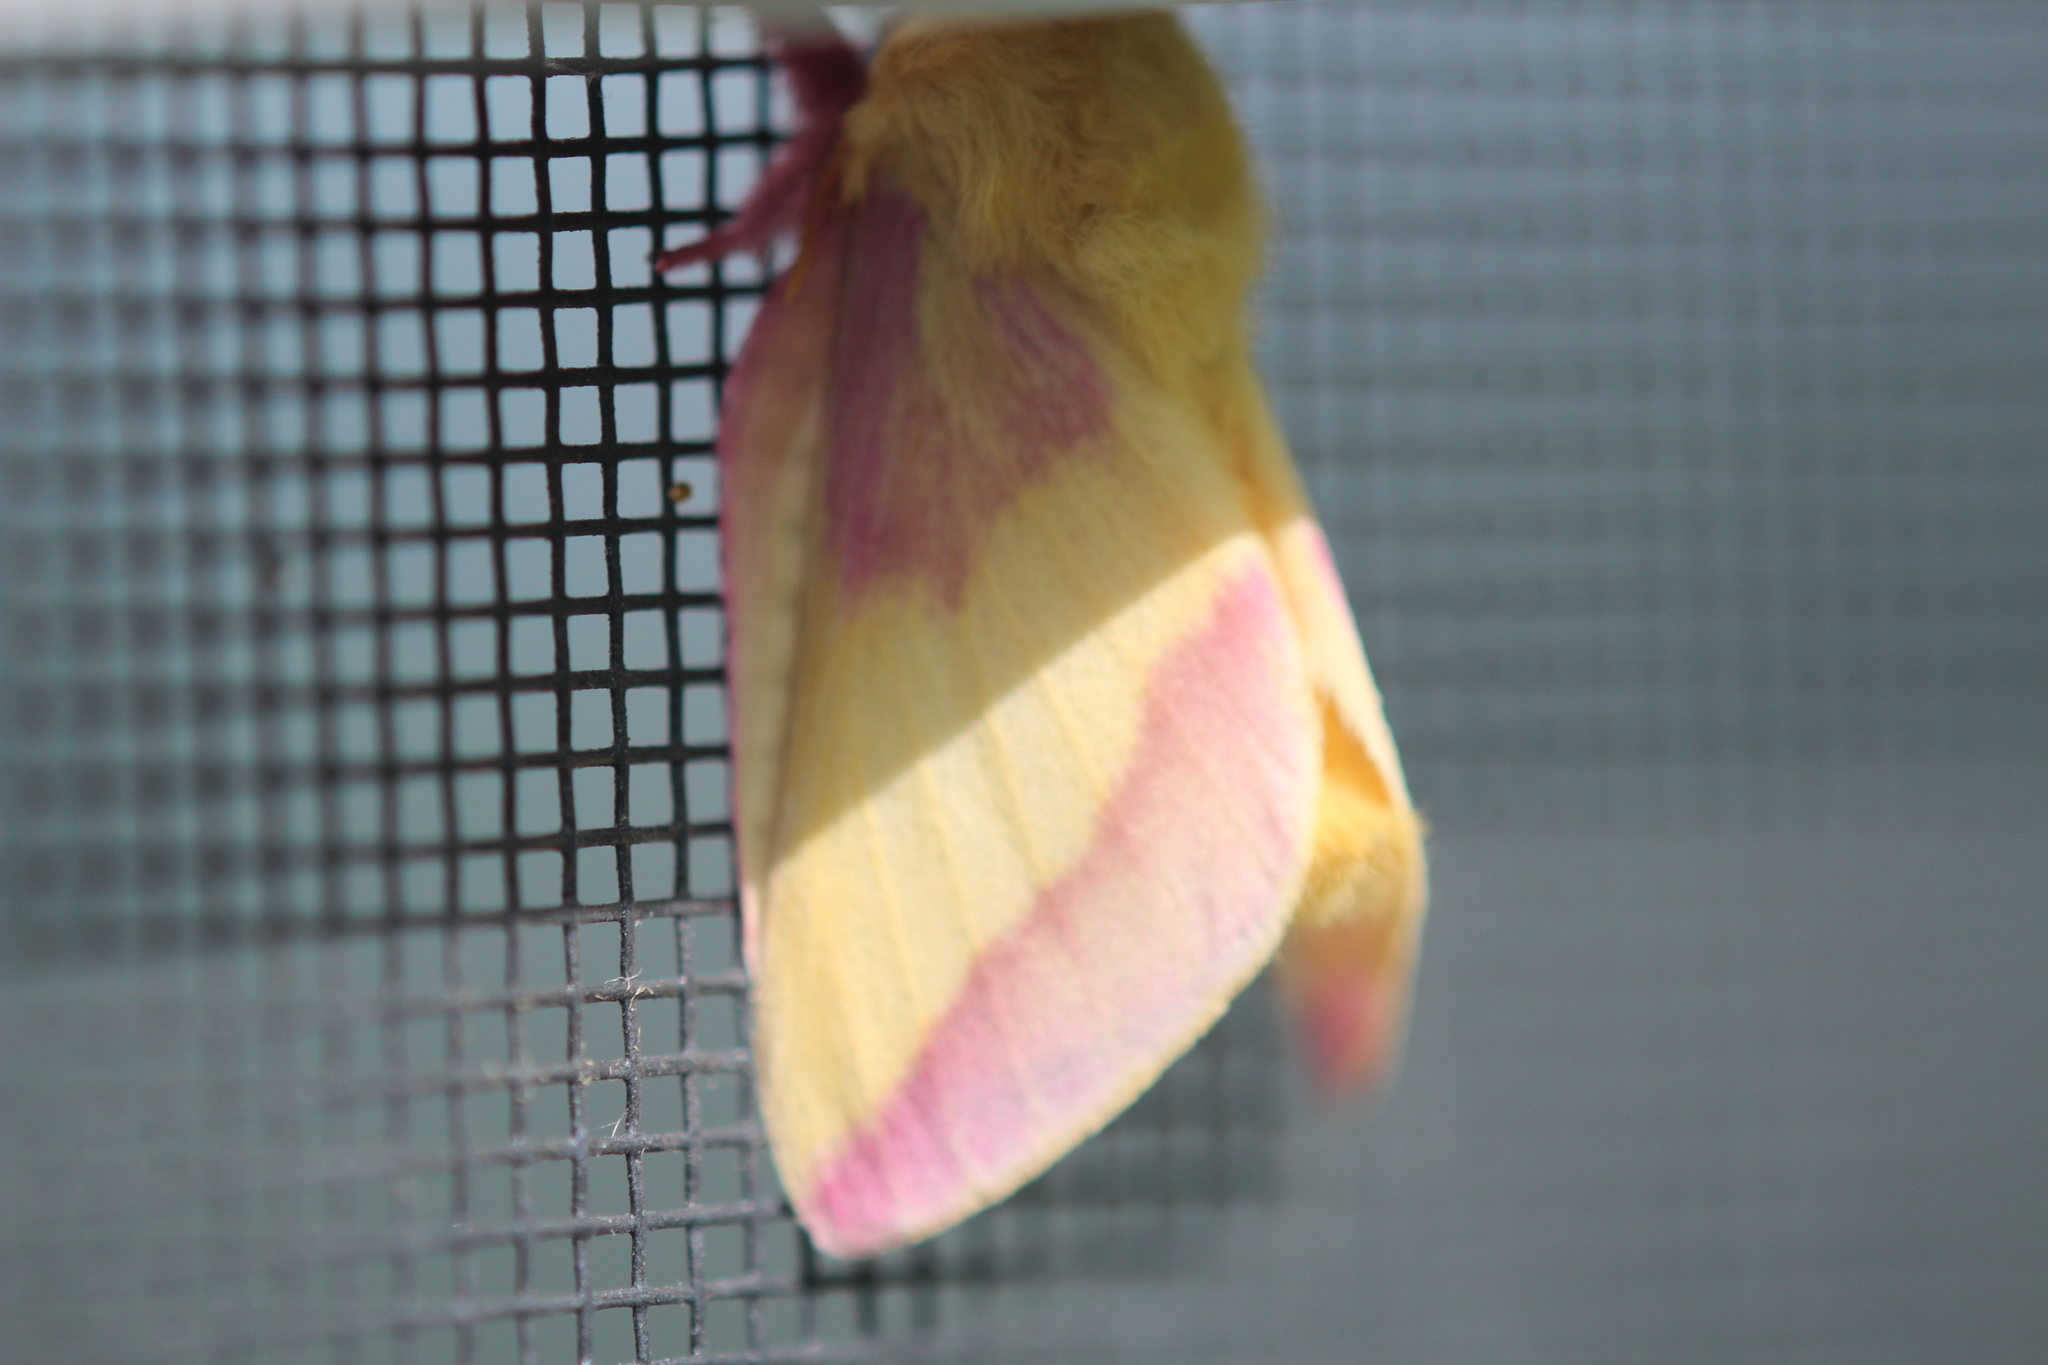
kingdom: Animalia
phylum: Arthropoda
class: Insecta
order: Lepidoptera
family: Saturniidae
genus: Dryocampa
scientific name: Dryocampa rubicunda
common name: Rosy maple moth
